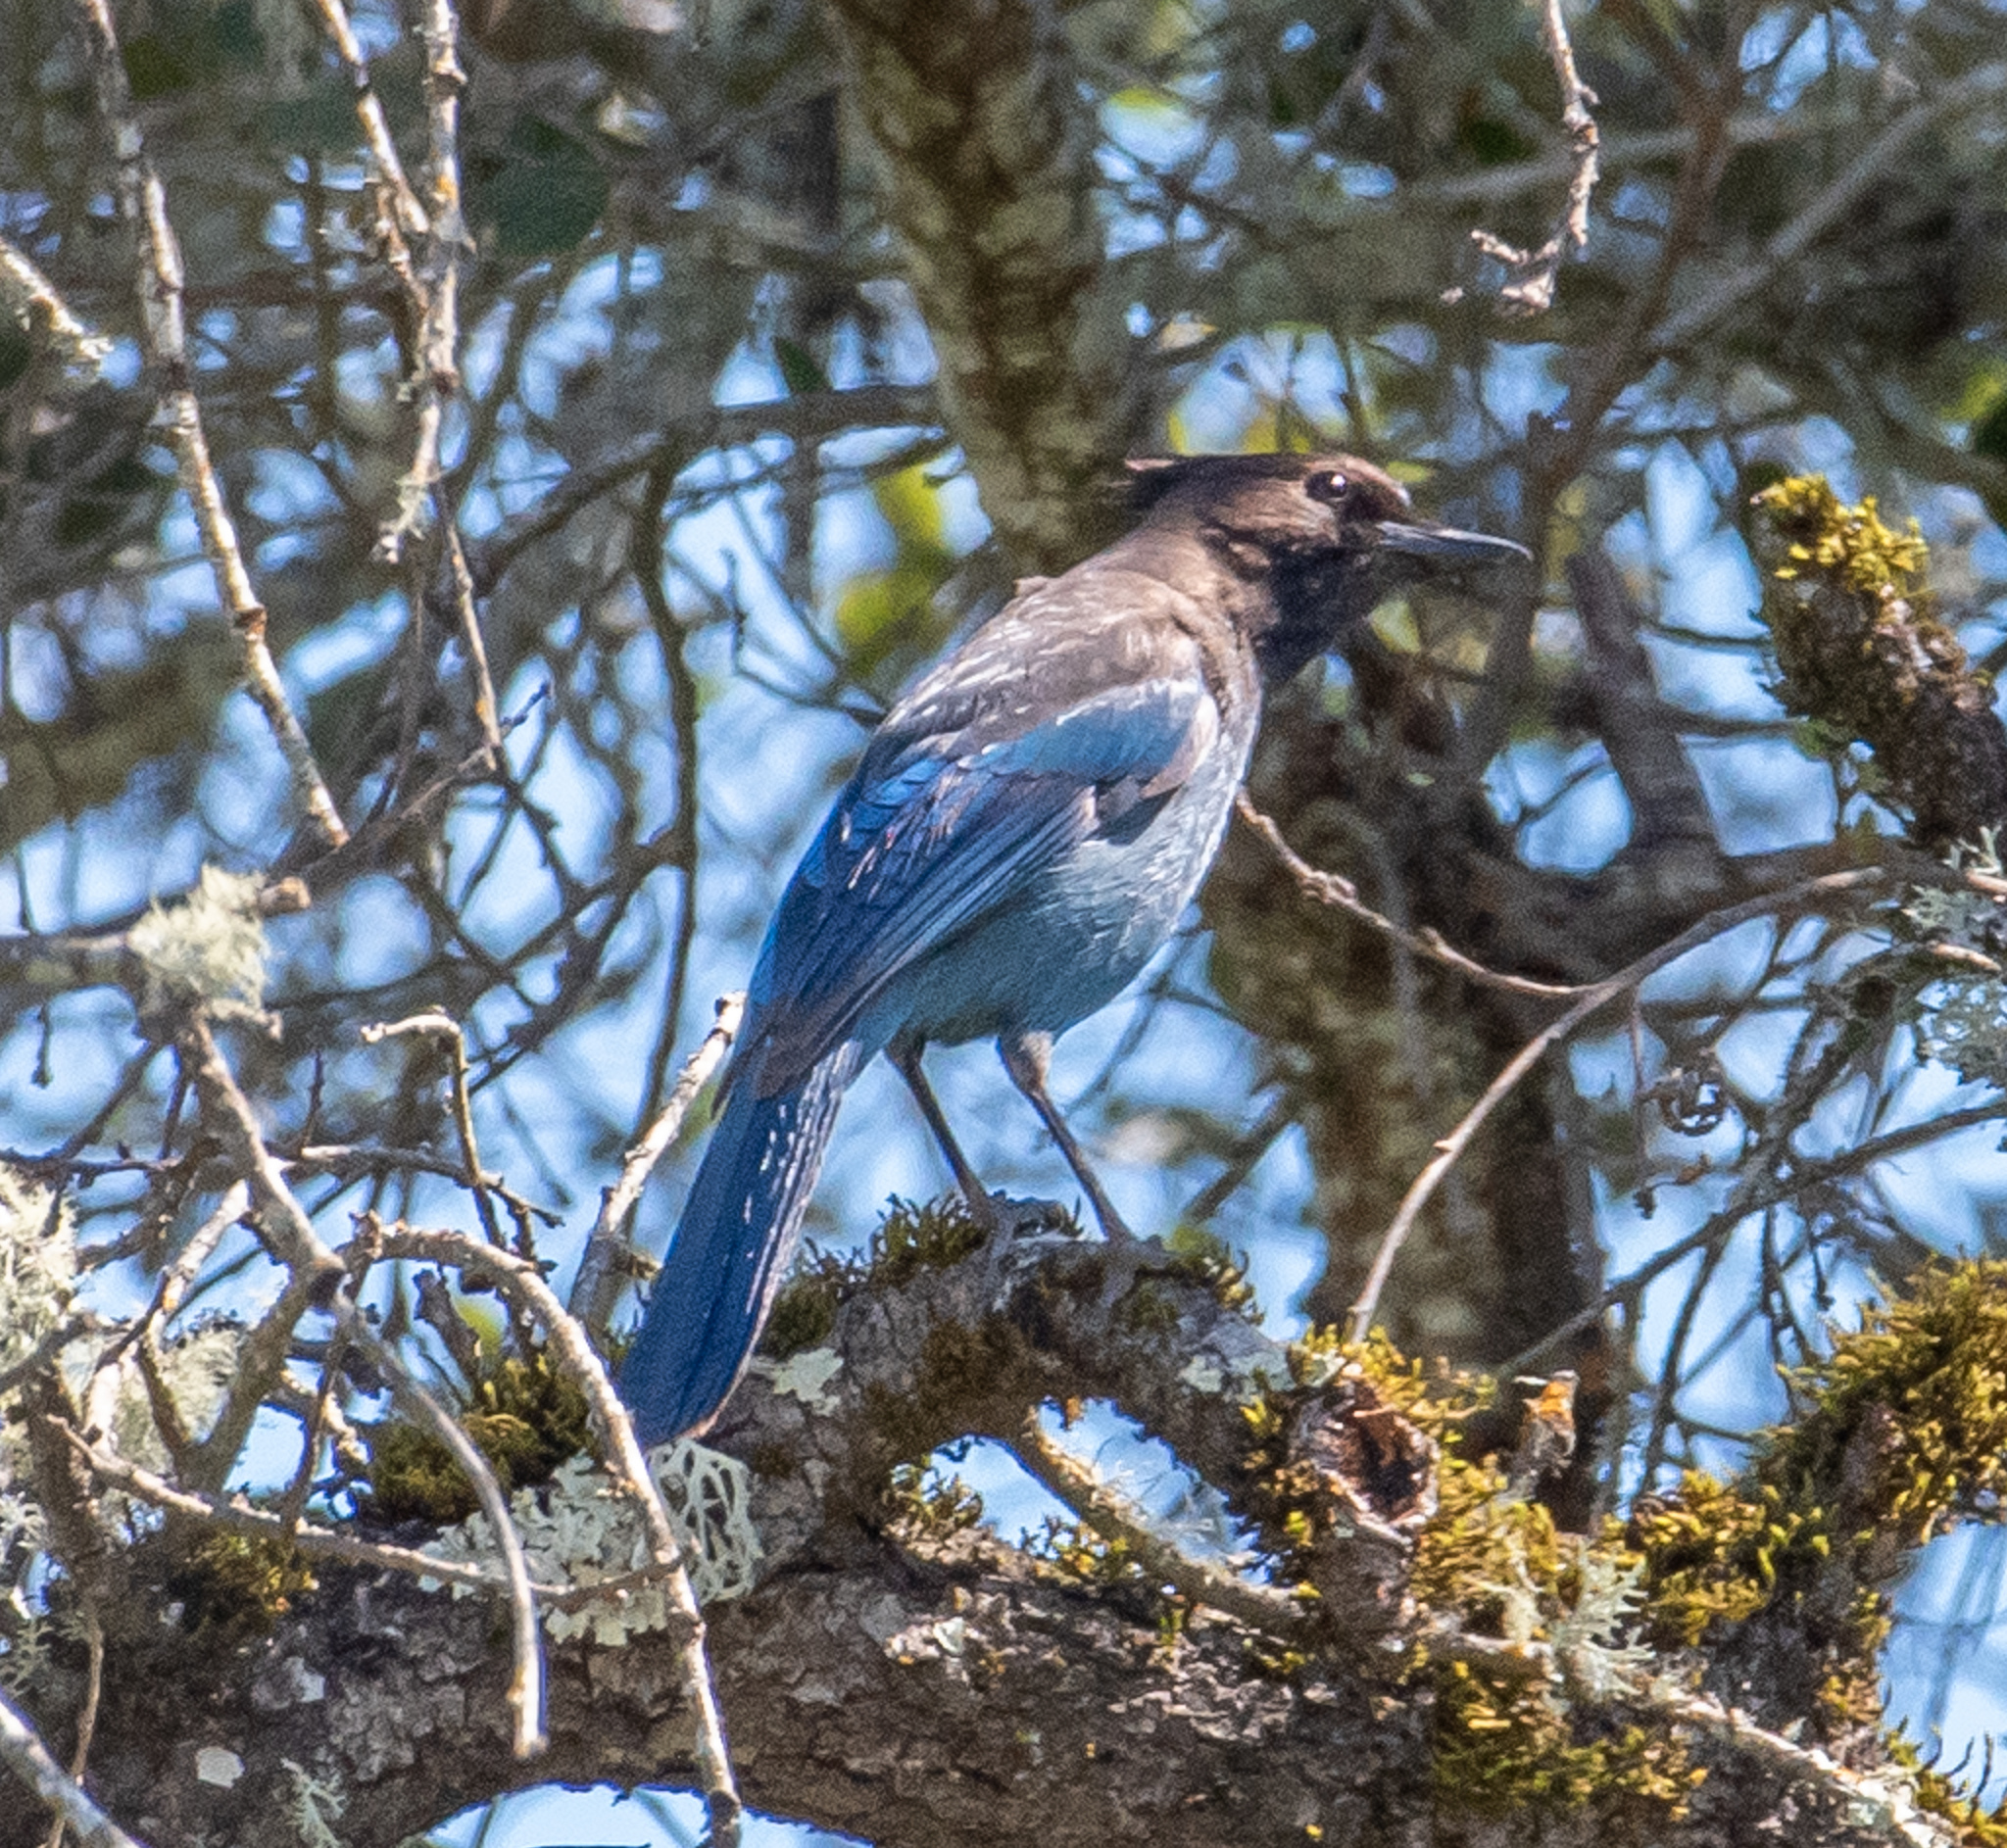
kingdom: Animalia
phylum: Chordata
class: Aves
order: Passeriformes
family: Corvidae
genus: Cyanocitta
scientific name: Cyanocitta stelleri
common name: Steller's jay
